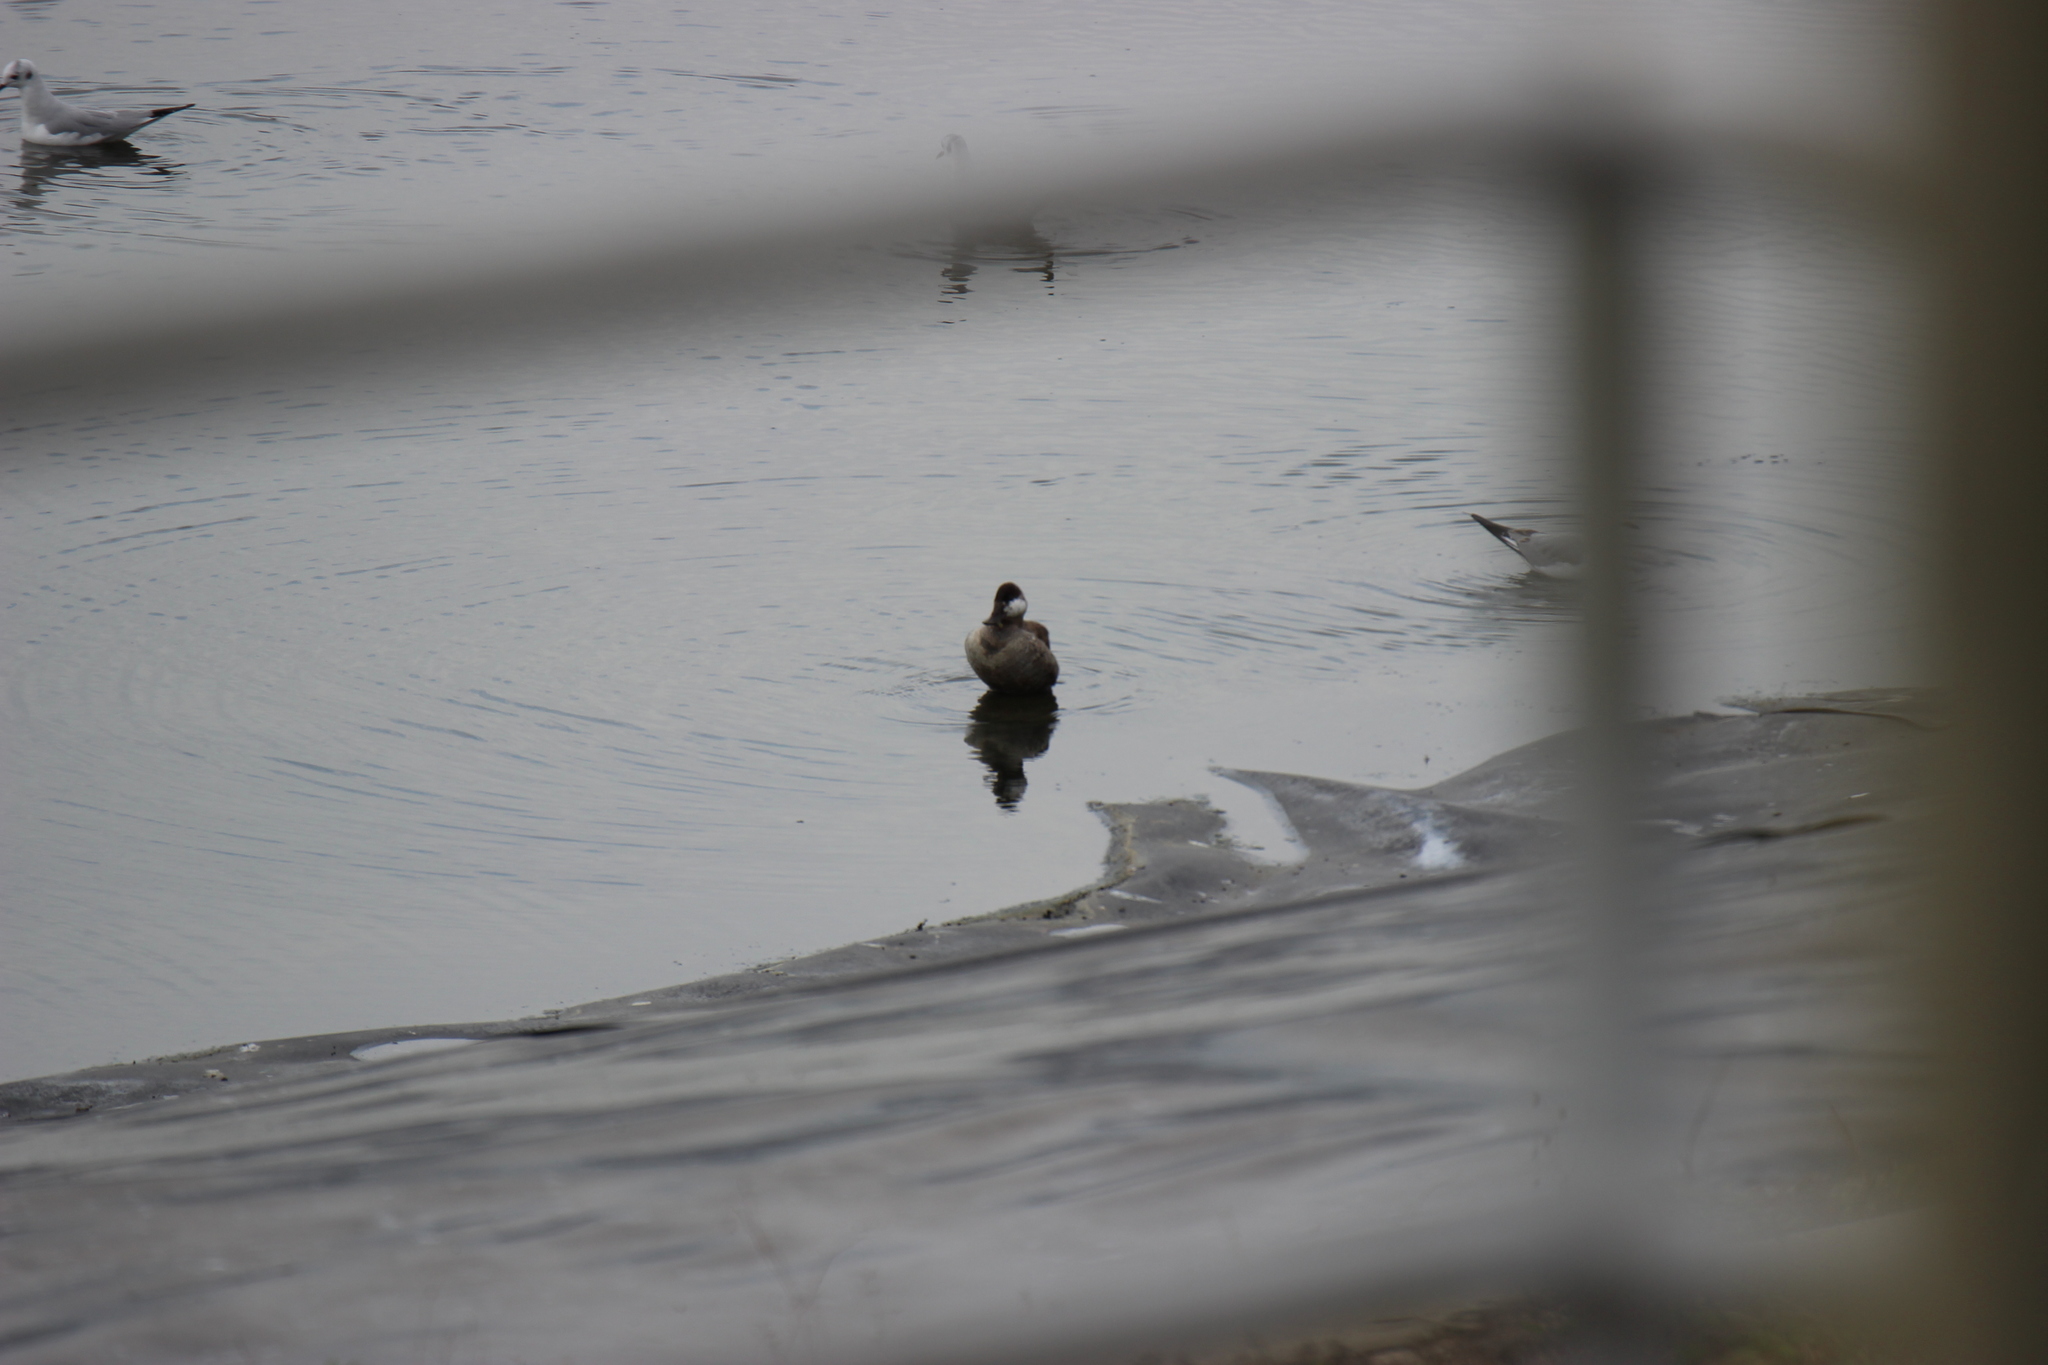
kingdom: Animalia
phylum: Chordata
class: Aves
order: Anseriformes
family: Anatidae
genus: Oxyura
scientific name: Oxyura jamaicensis
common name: Ruddy duck
